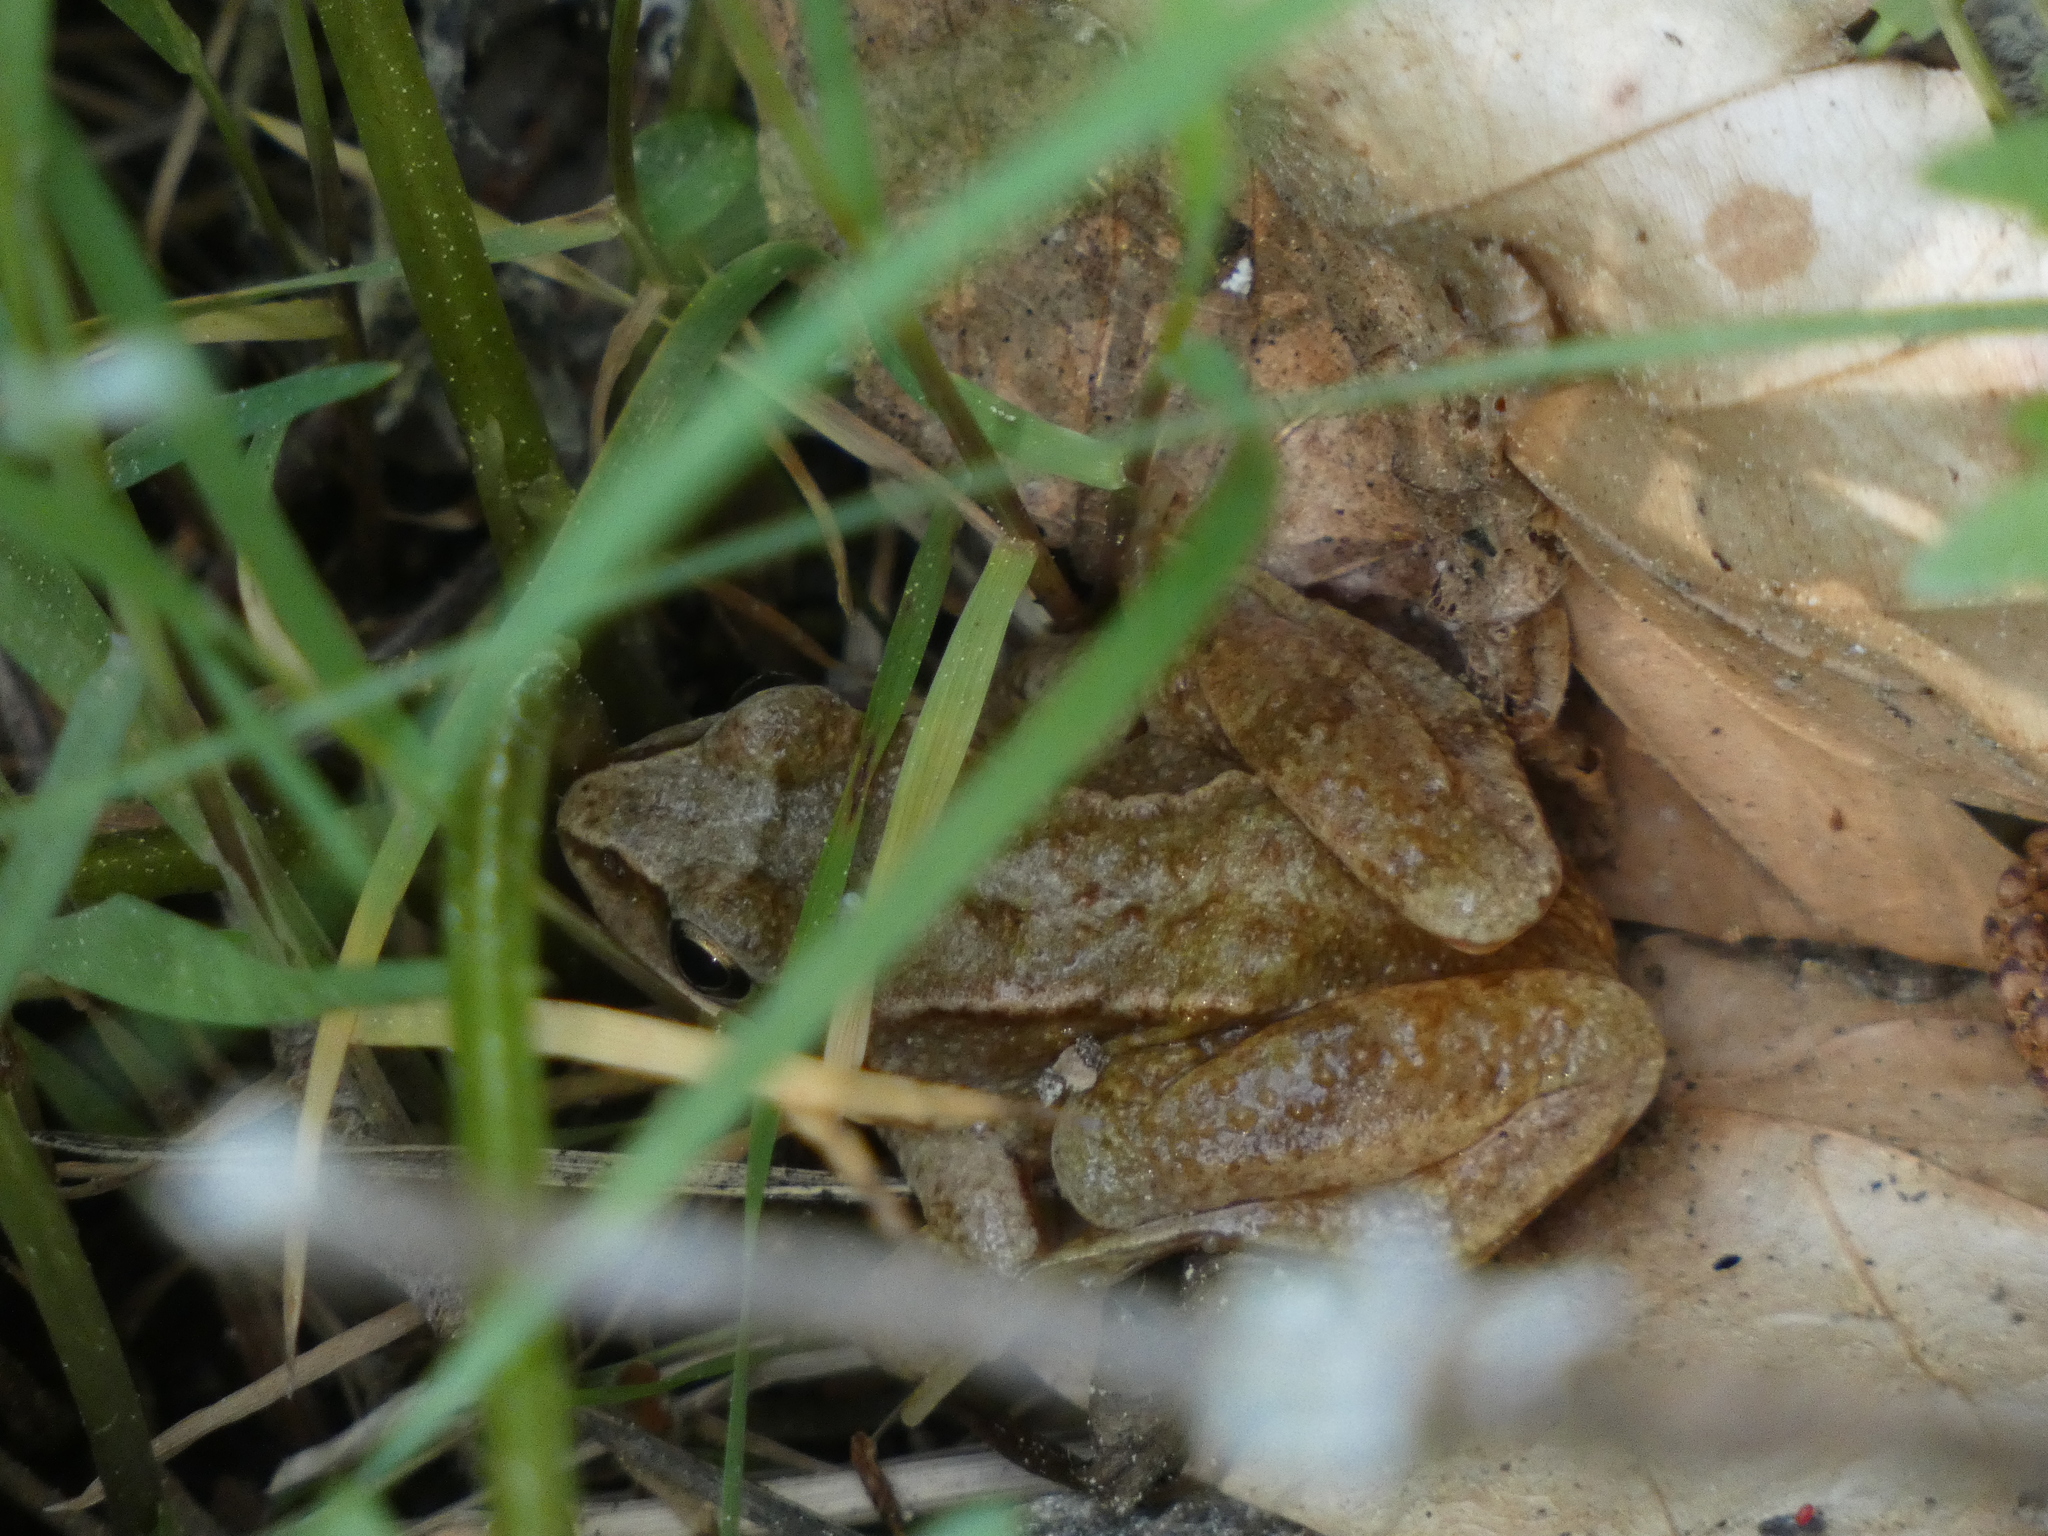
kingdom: Animalia
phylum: Chordata
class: Amphibia
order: Anura
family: Ranidae
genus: Rana
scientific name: Rana temporaria
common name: Common frog
